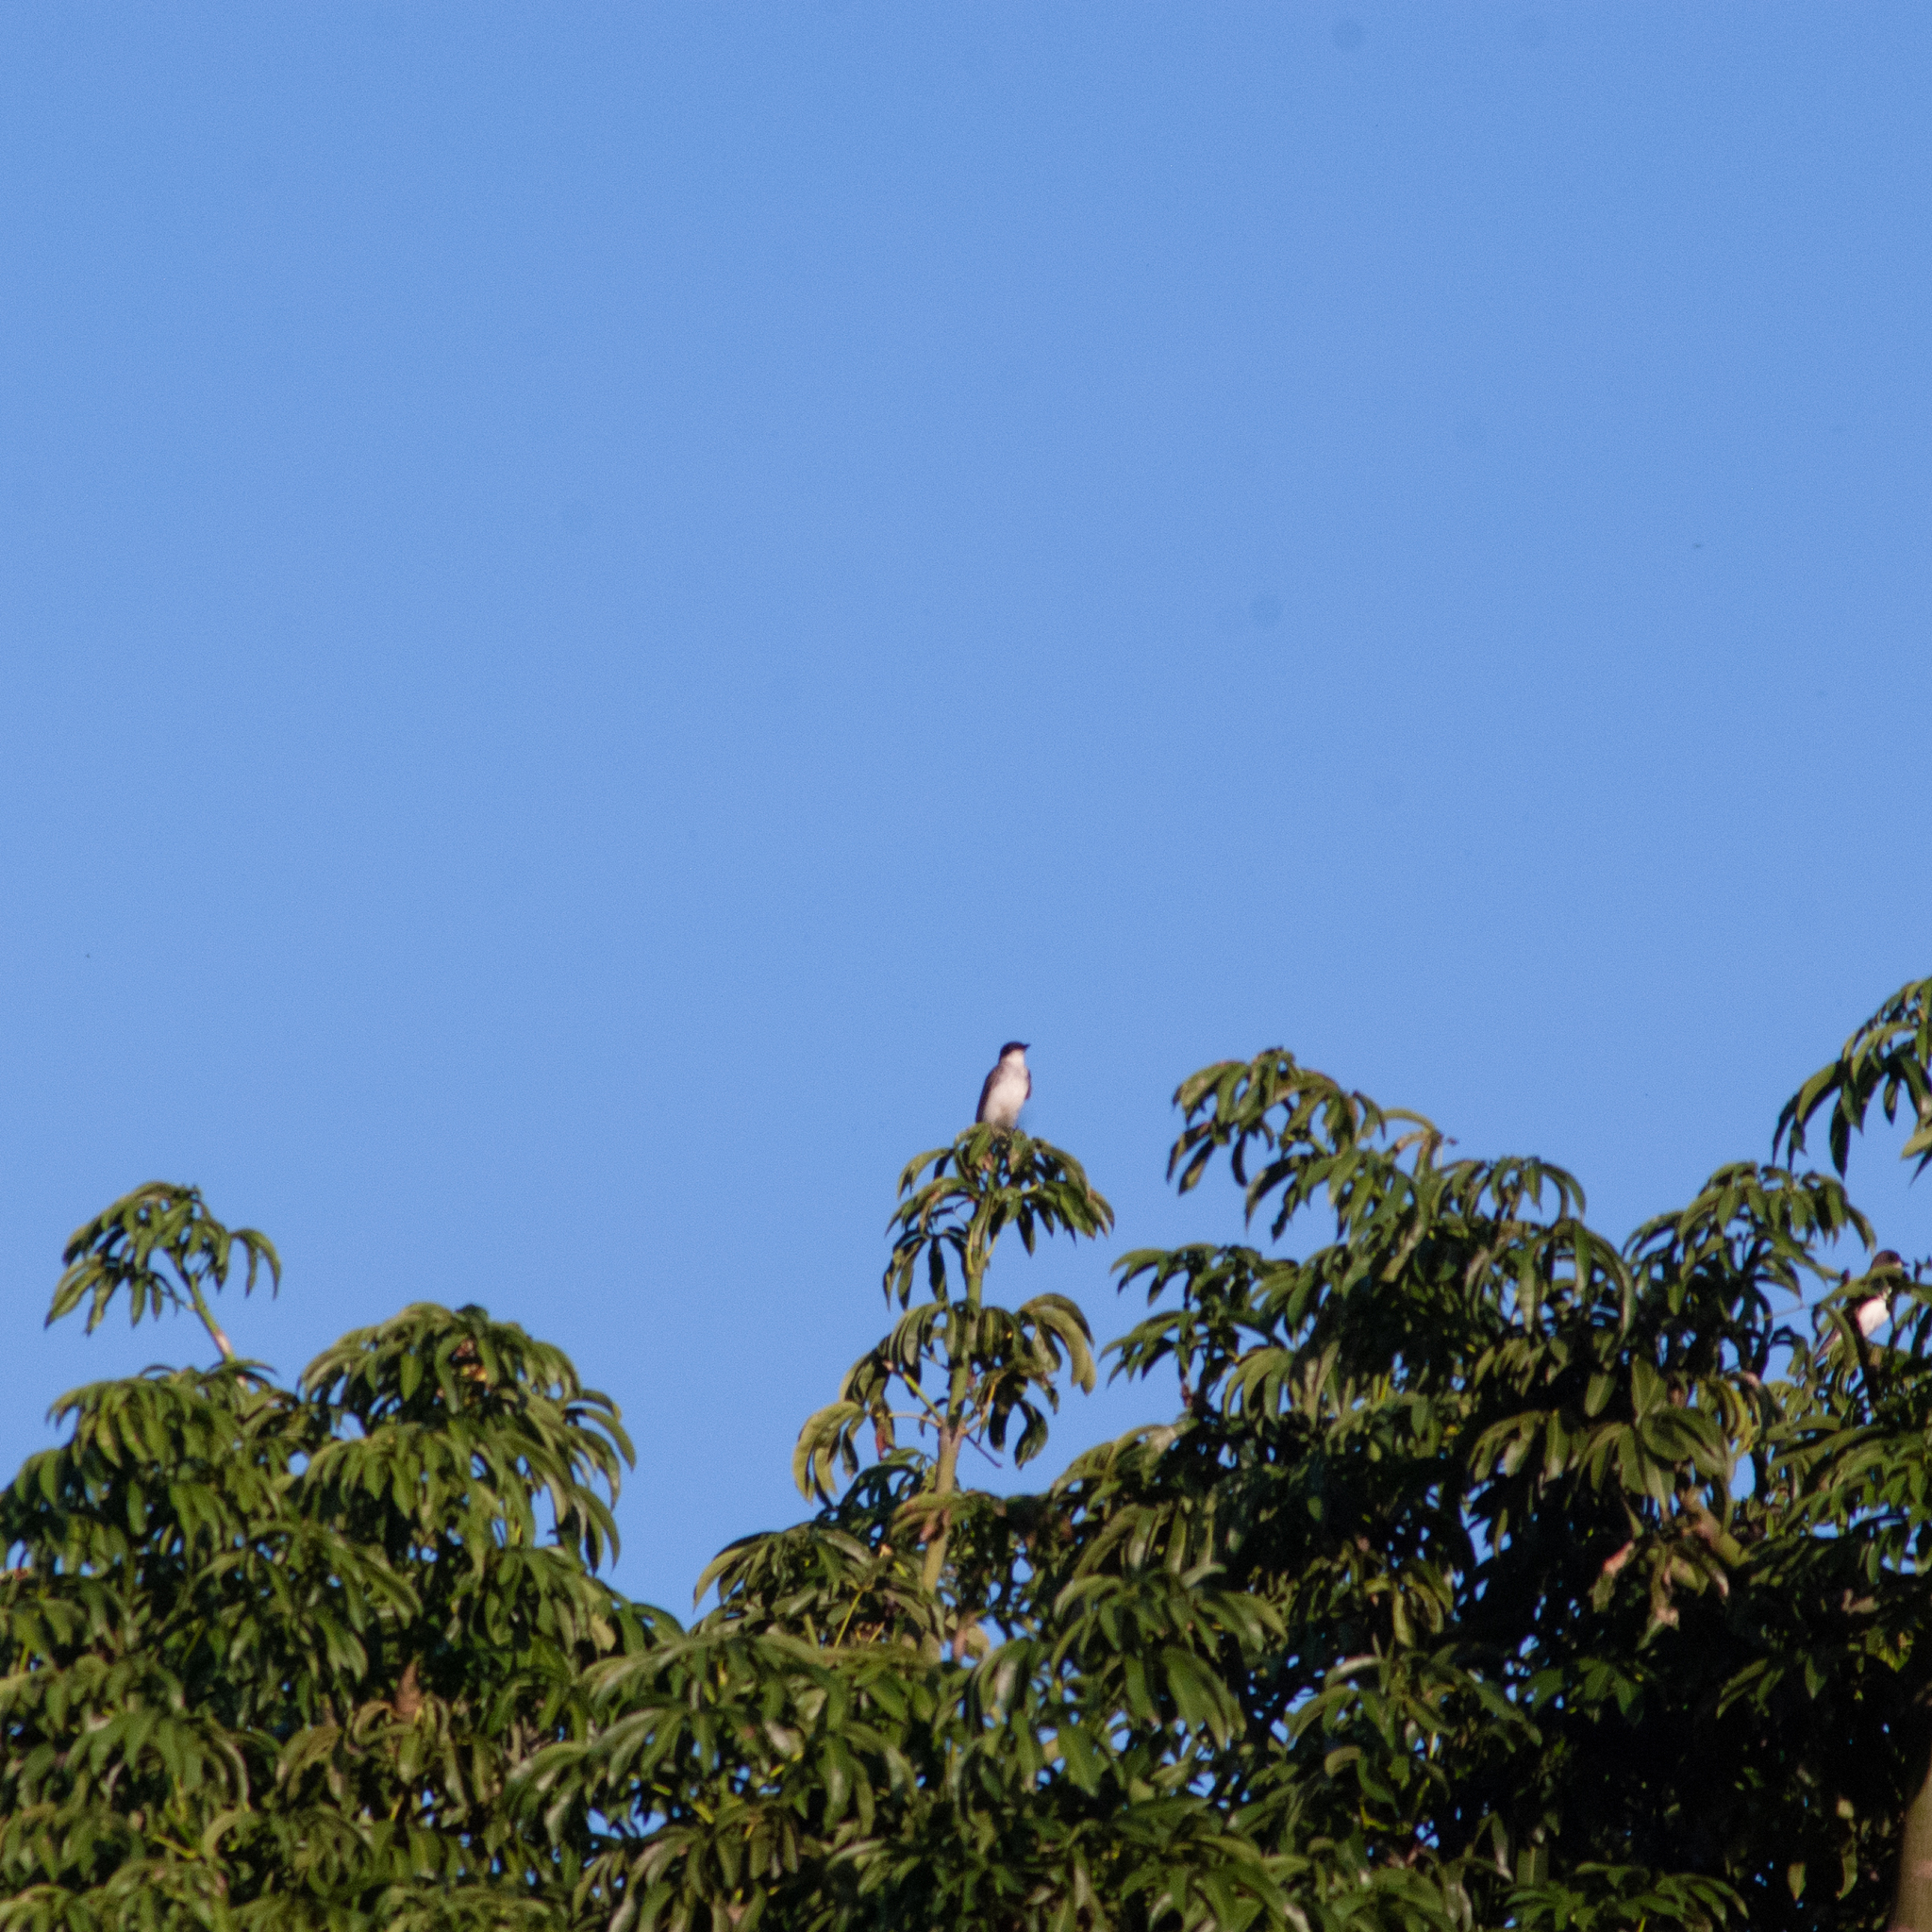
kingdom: Animalia
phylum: Chordata
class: Aves
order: Passeriformes
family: Tyrannidae
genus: Tyrannus
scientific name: Tyrannus tyrannus
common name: Eastern kingbird
